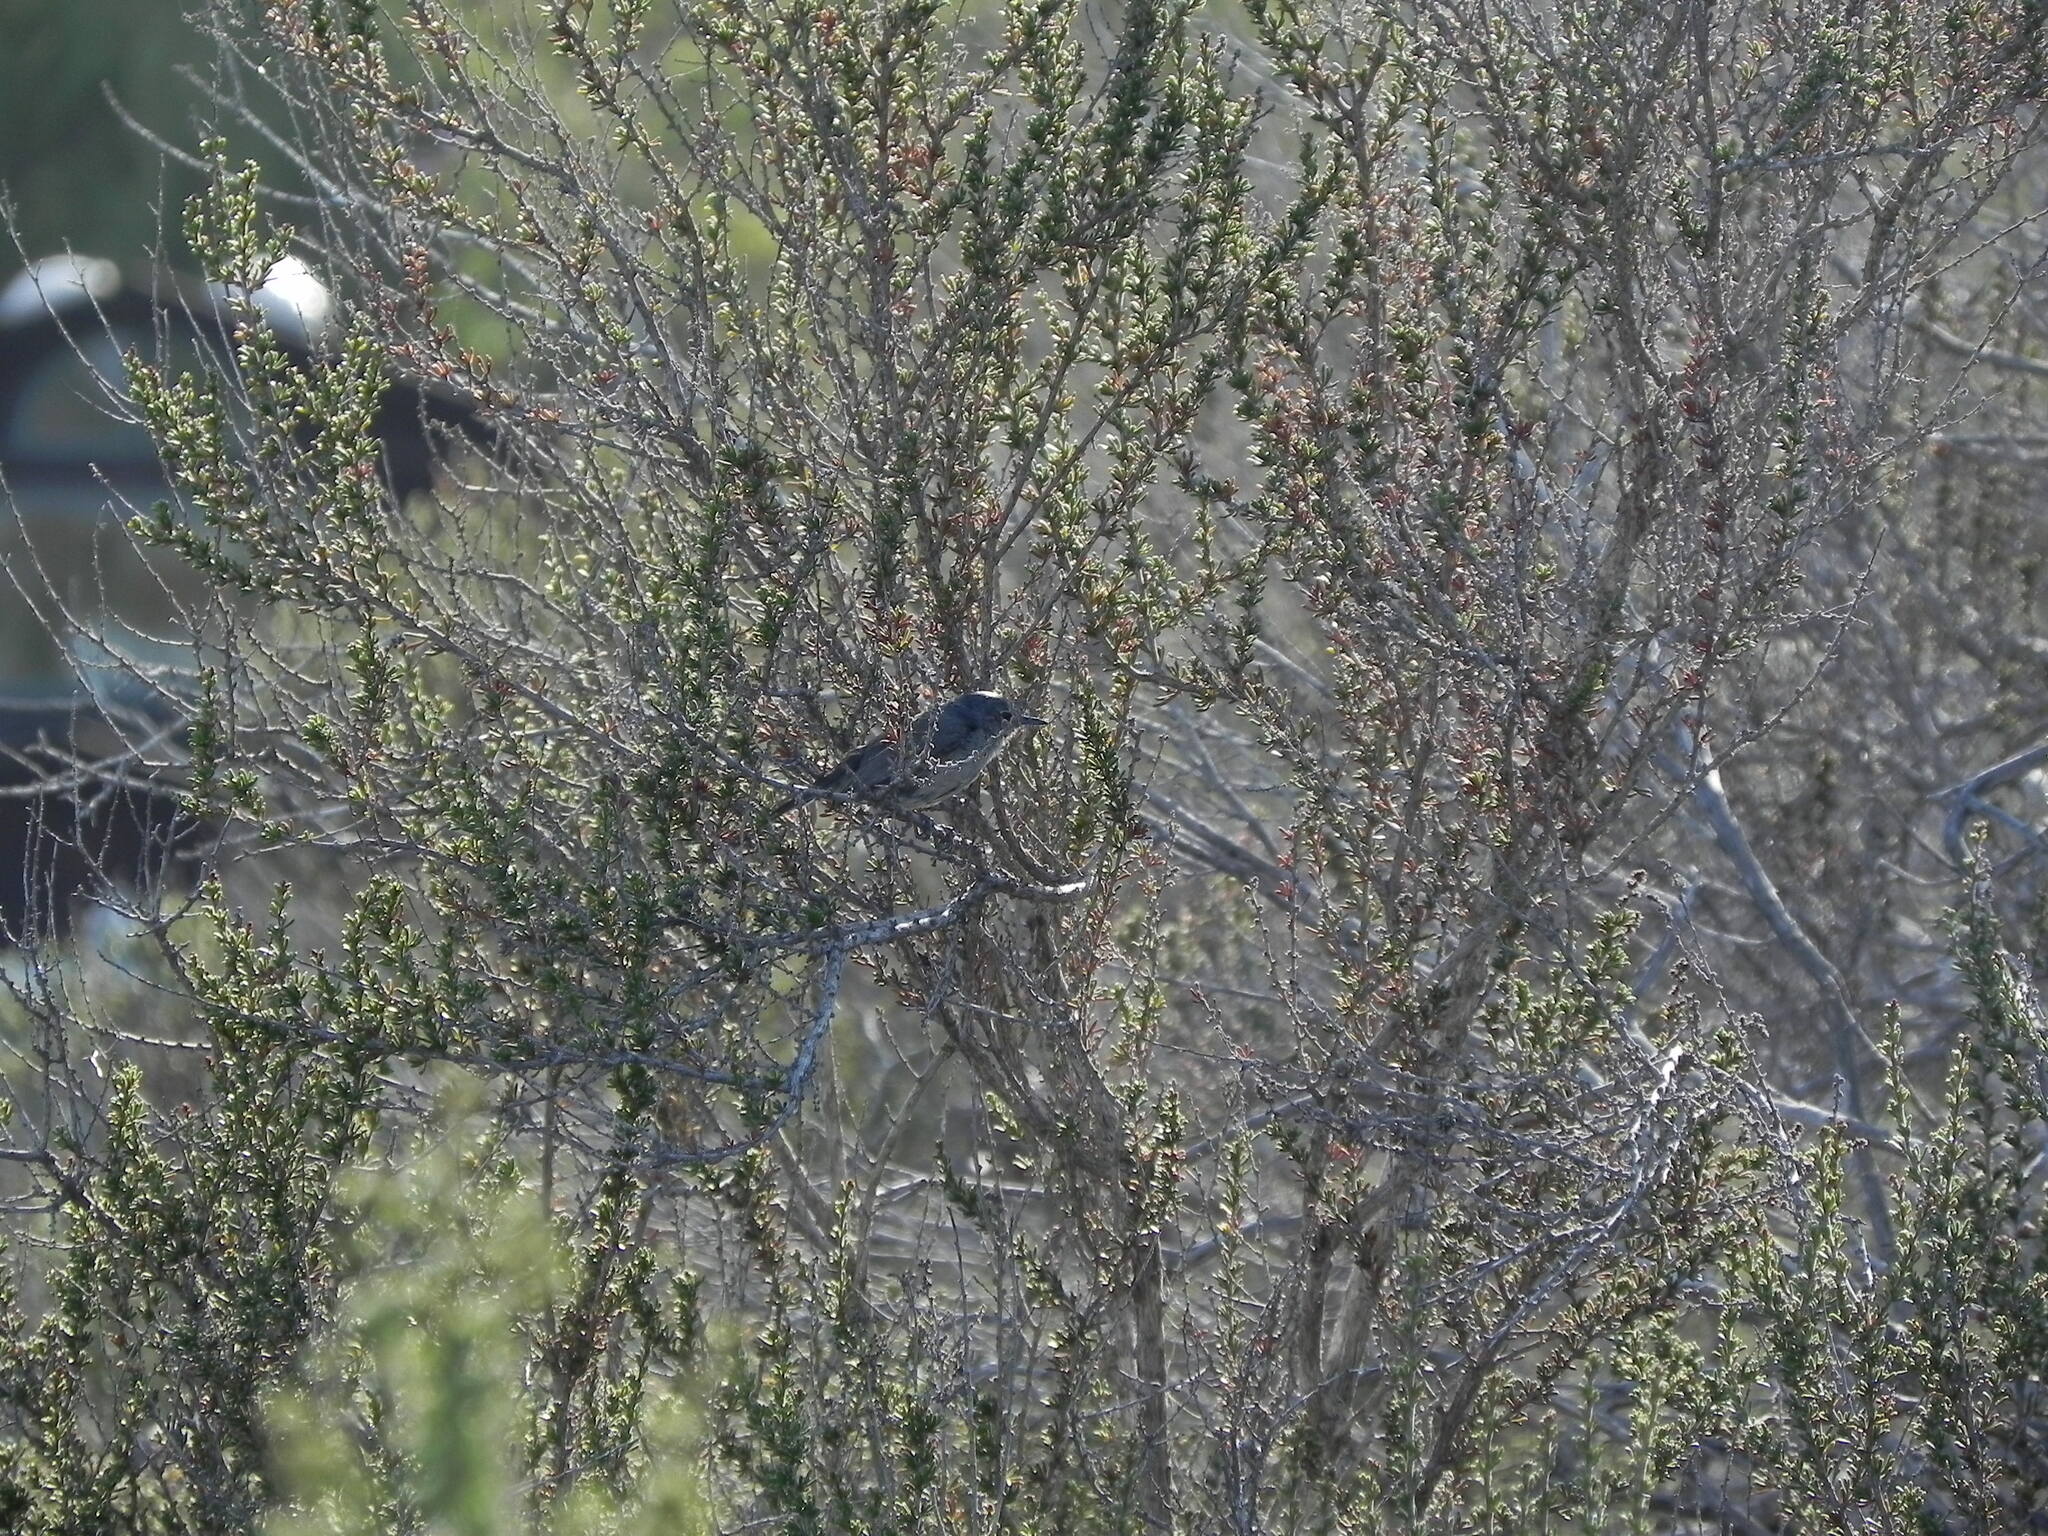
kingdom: Animalia
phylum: Chordata
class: Aves
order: Passeriformes
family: Polioptilidae
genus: Polioptila
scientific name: Polioptila californica
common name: California gnatcatcher
